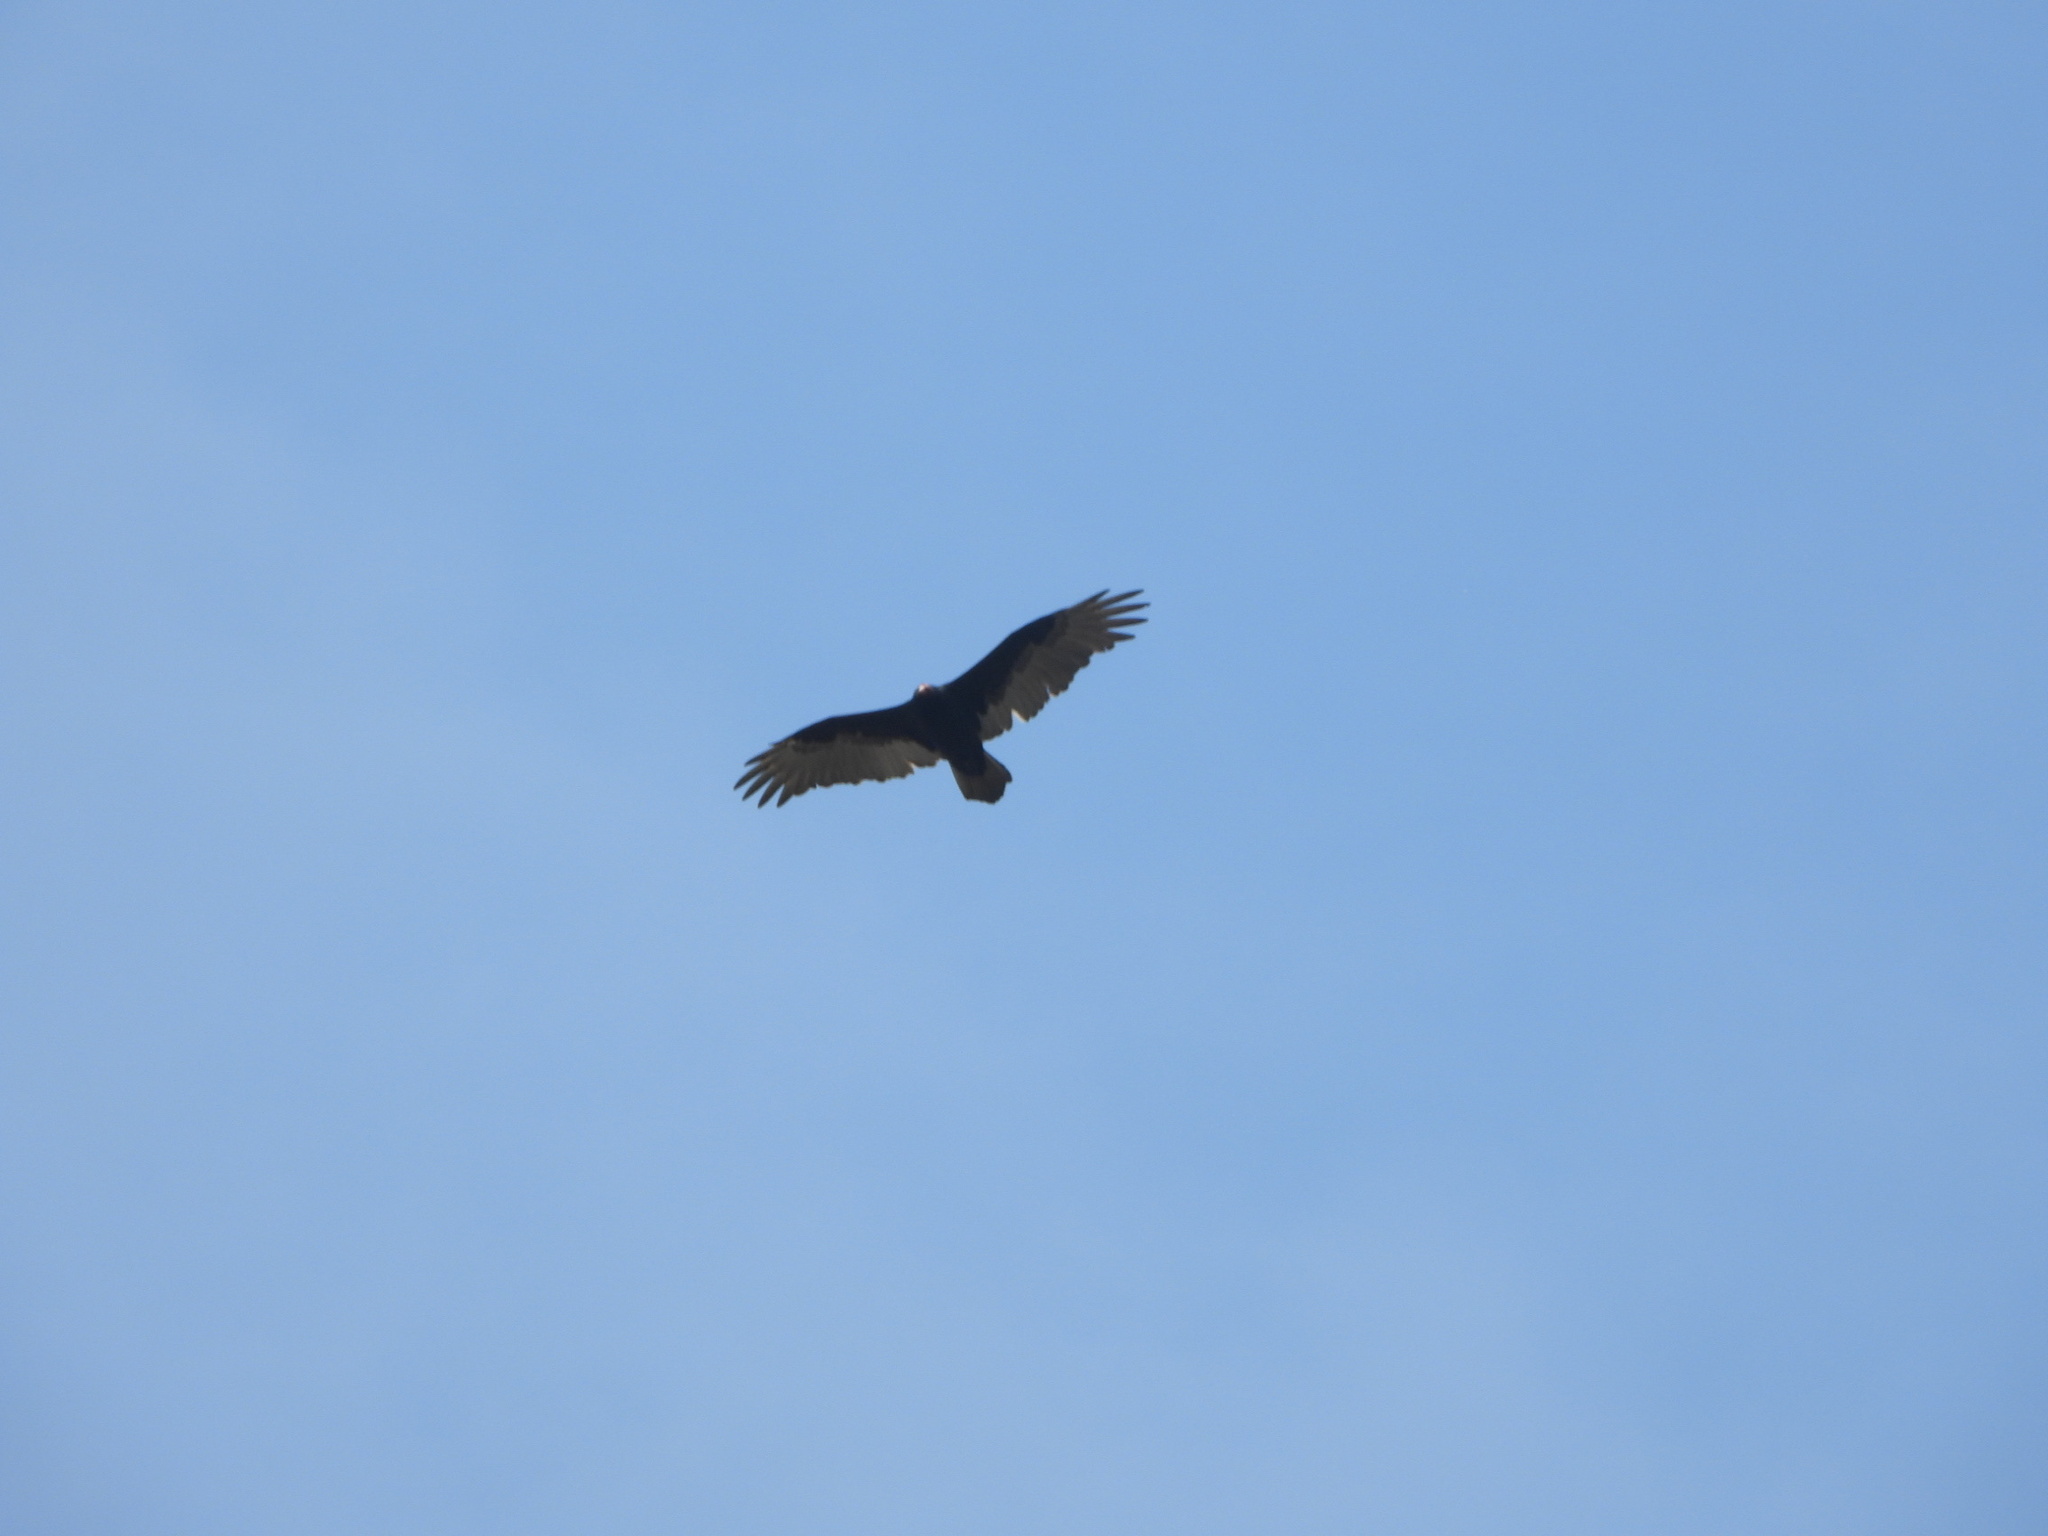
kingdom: Animalia
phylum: Chordata
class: Aves
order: Accipitriformes
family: Cathartidae
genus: Cathartes
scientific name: Cathartes aura
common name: Turkey vulture
